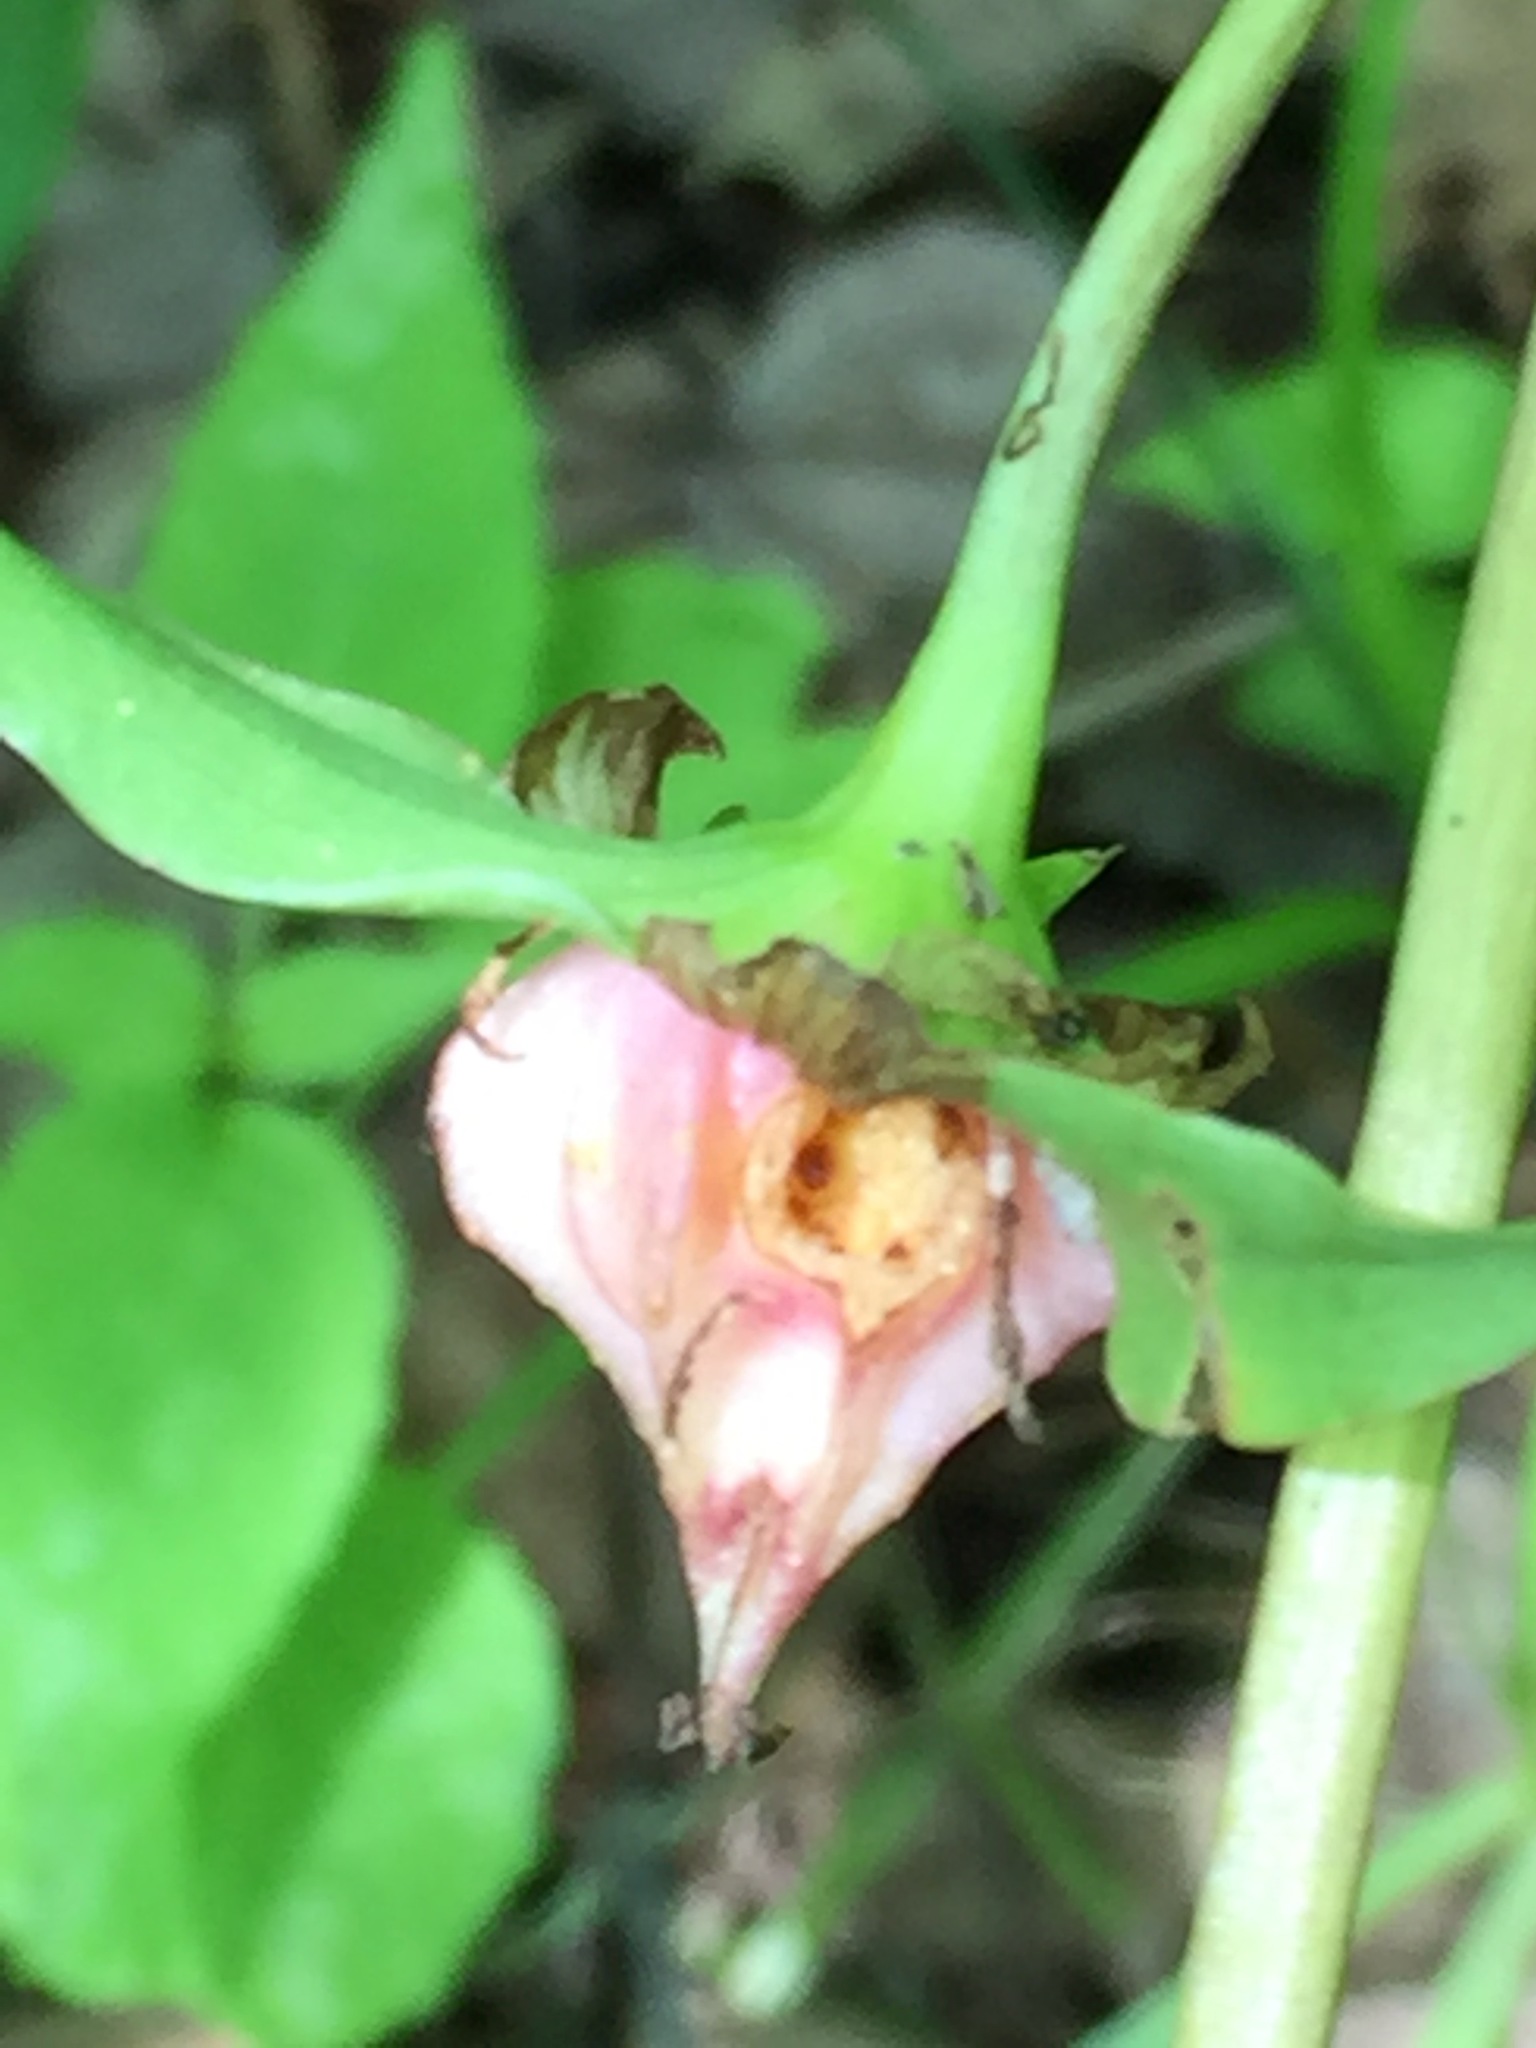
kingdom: Plantae
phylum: Tracheophyta
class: Liliopsida
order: Liliales
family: Melanthiaceae
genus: Trillium
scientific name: Trillium cernuum
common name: Nodding trillium
